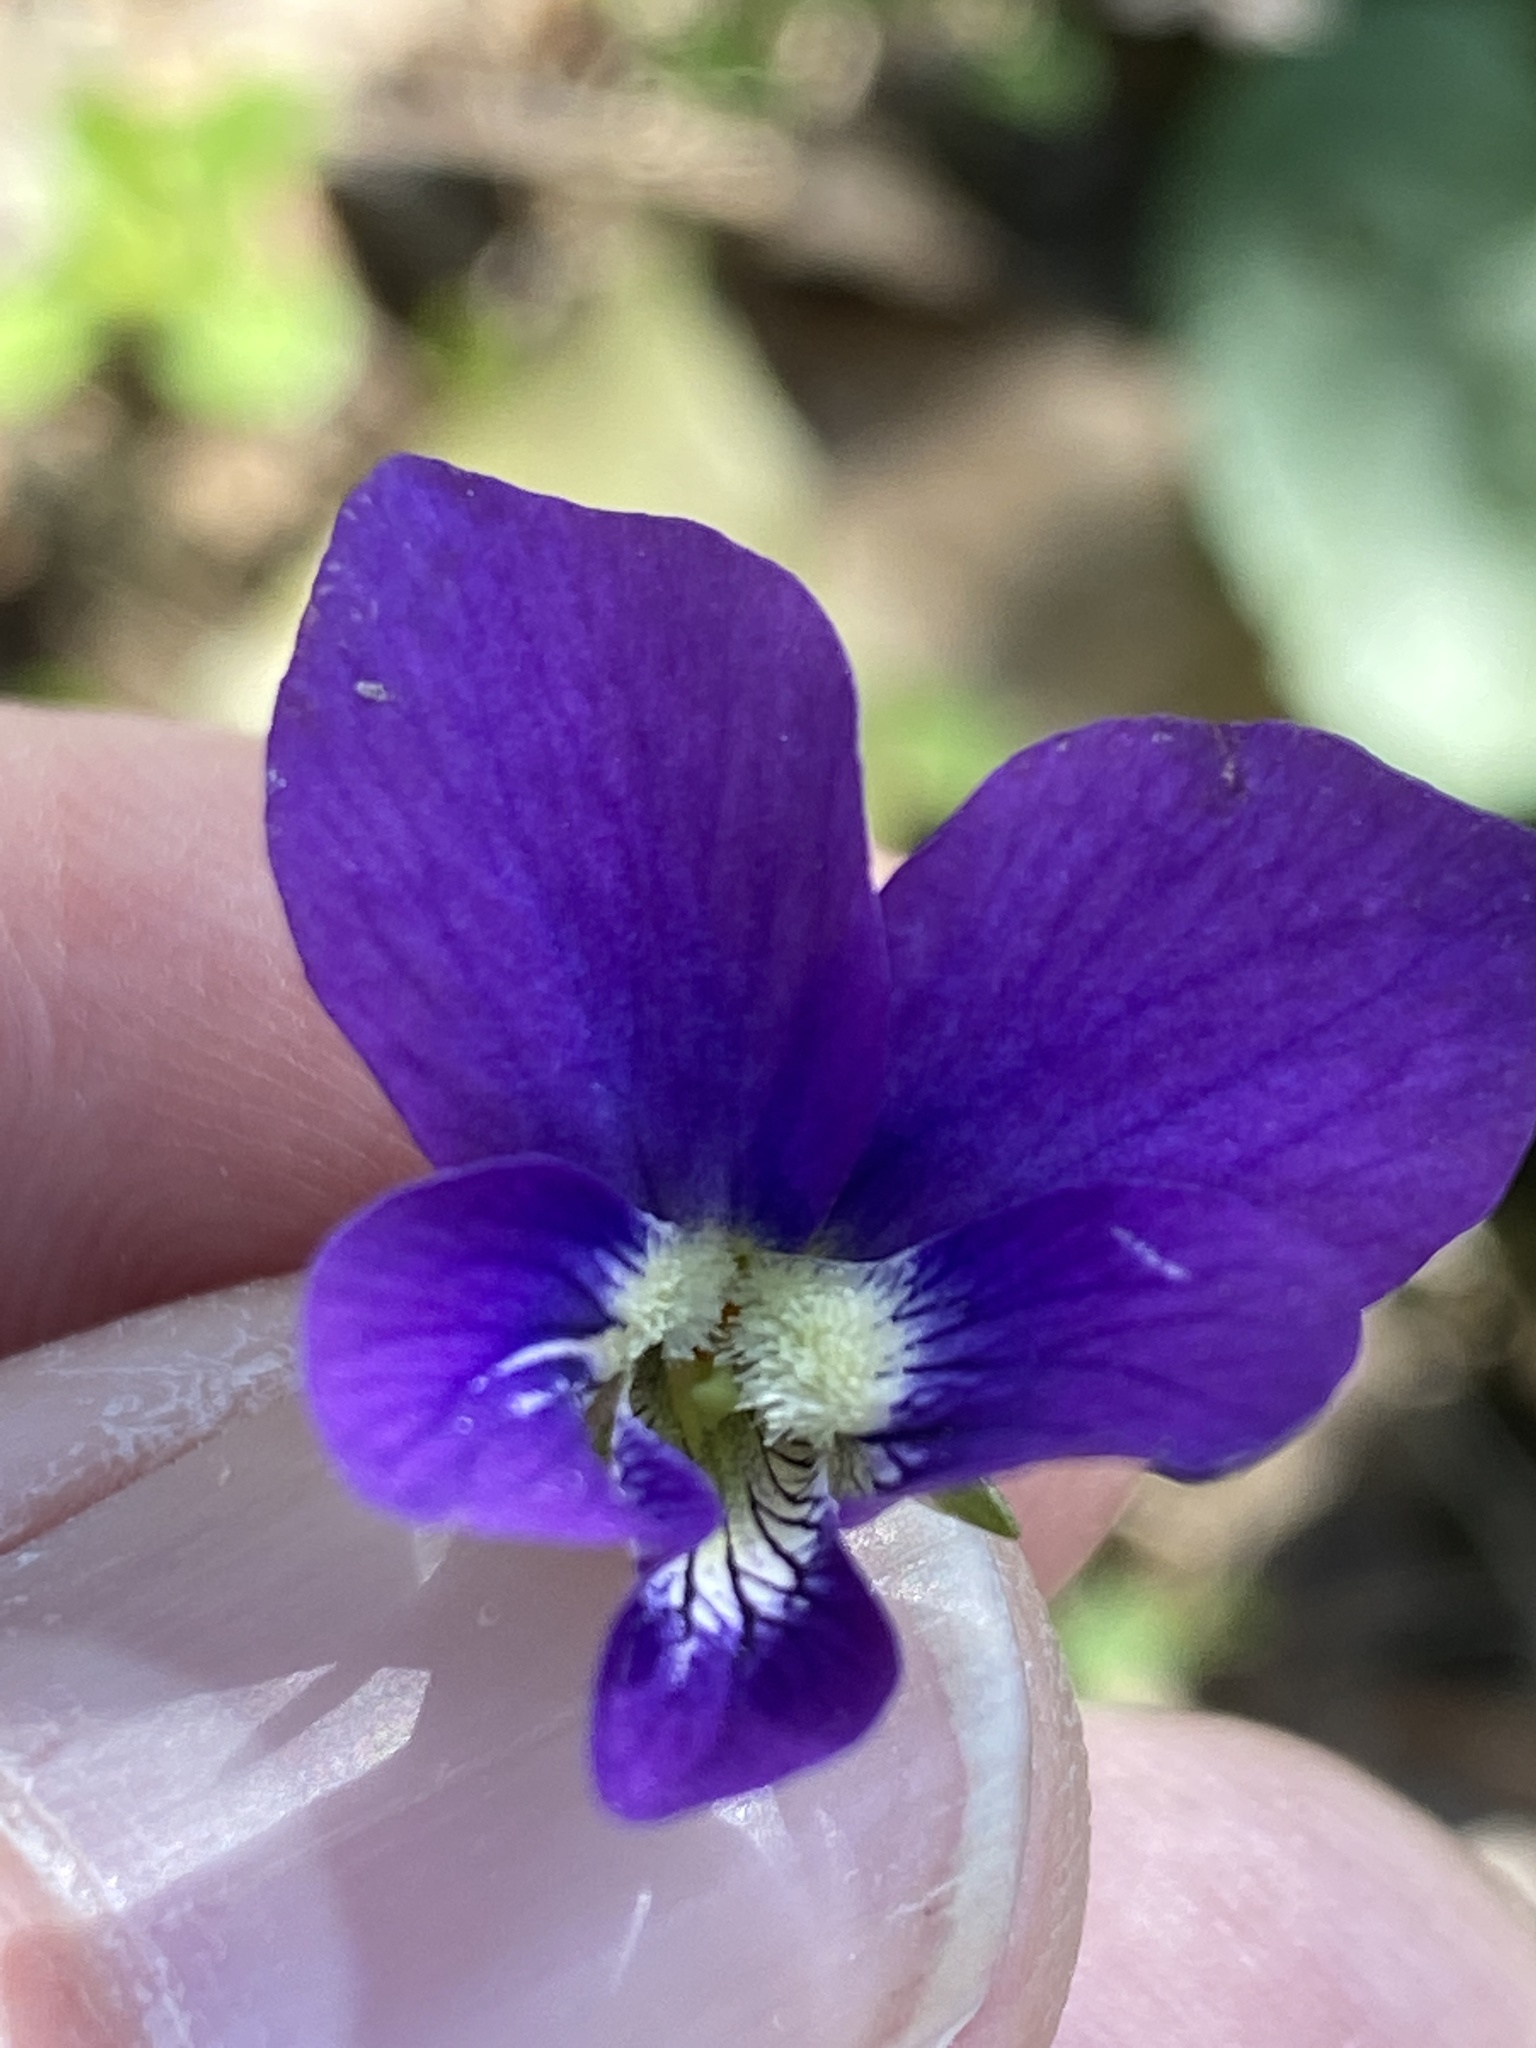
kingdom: Plantae
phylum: Tracheophyta
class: Magnoliopsida
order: Malpighiales
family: Violaceae
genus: Viola
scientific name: Viola sororia
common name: Dooryard violet
